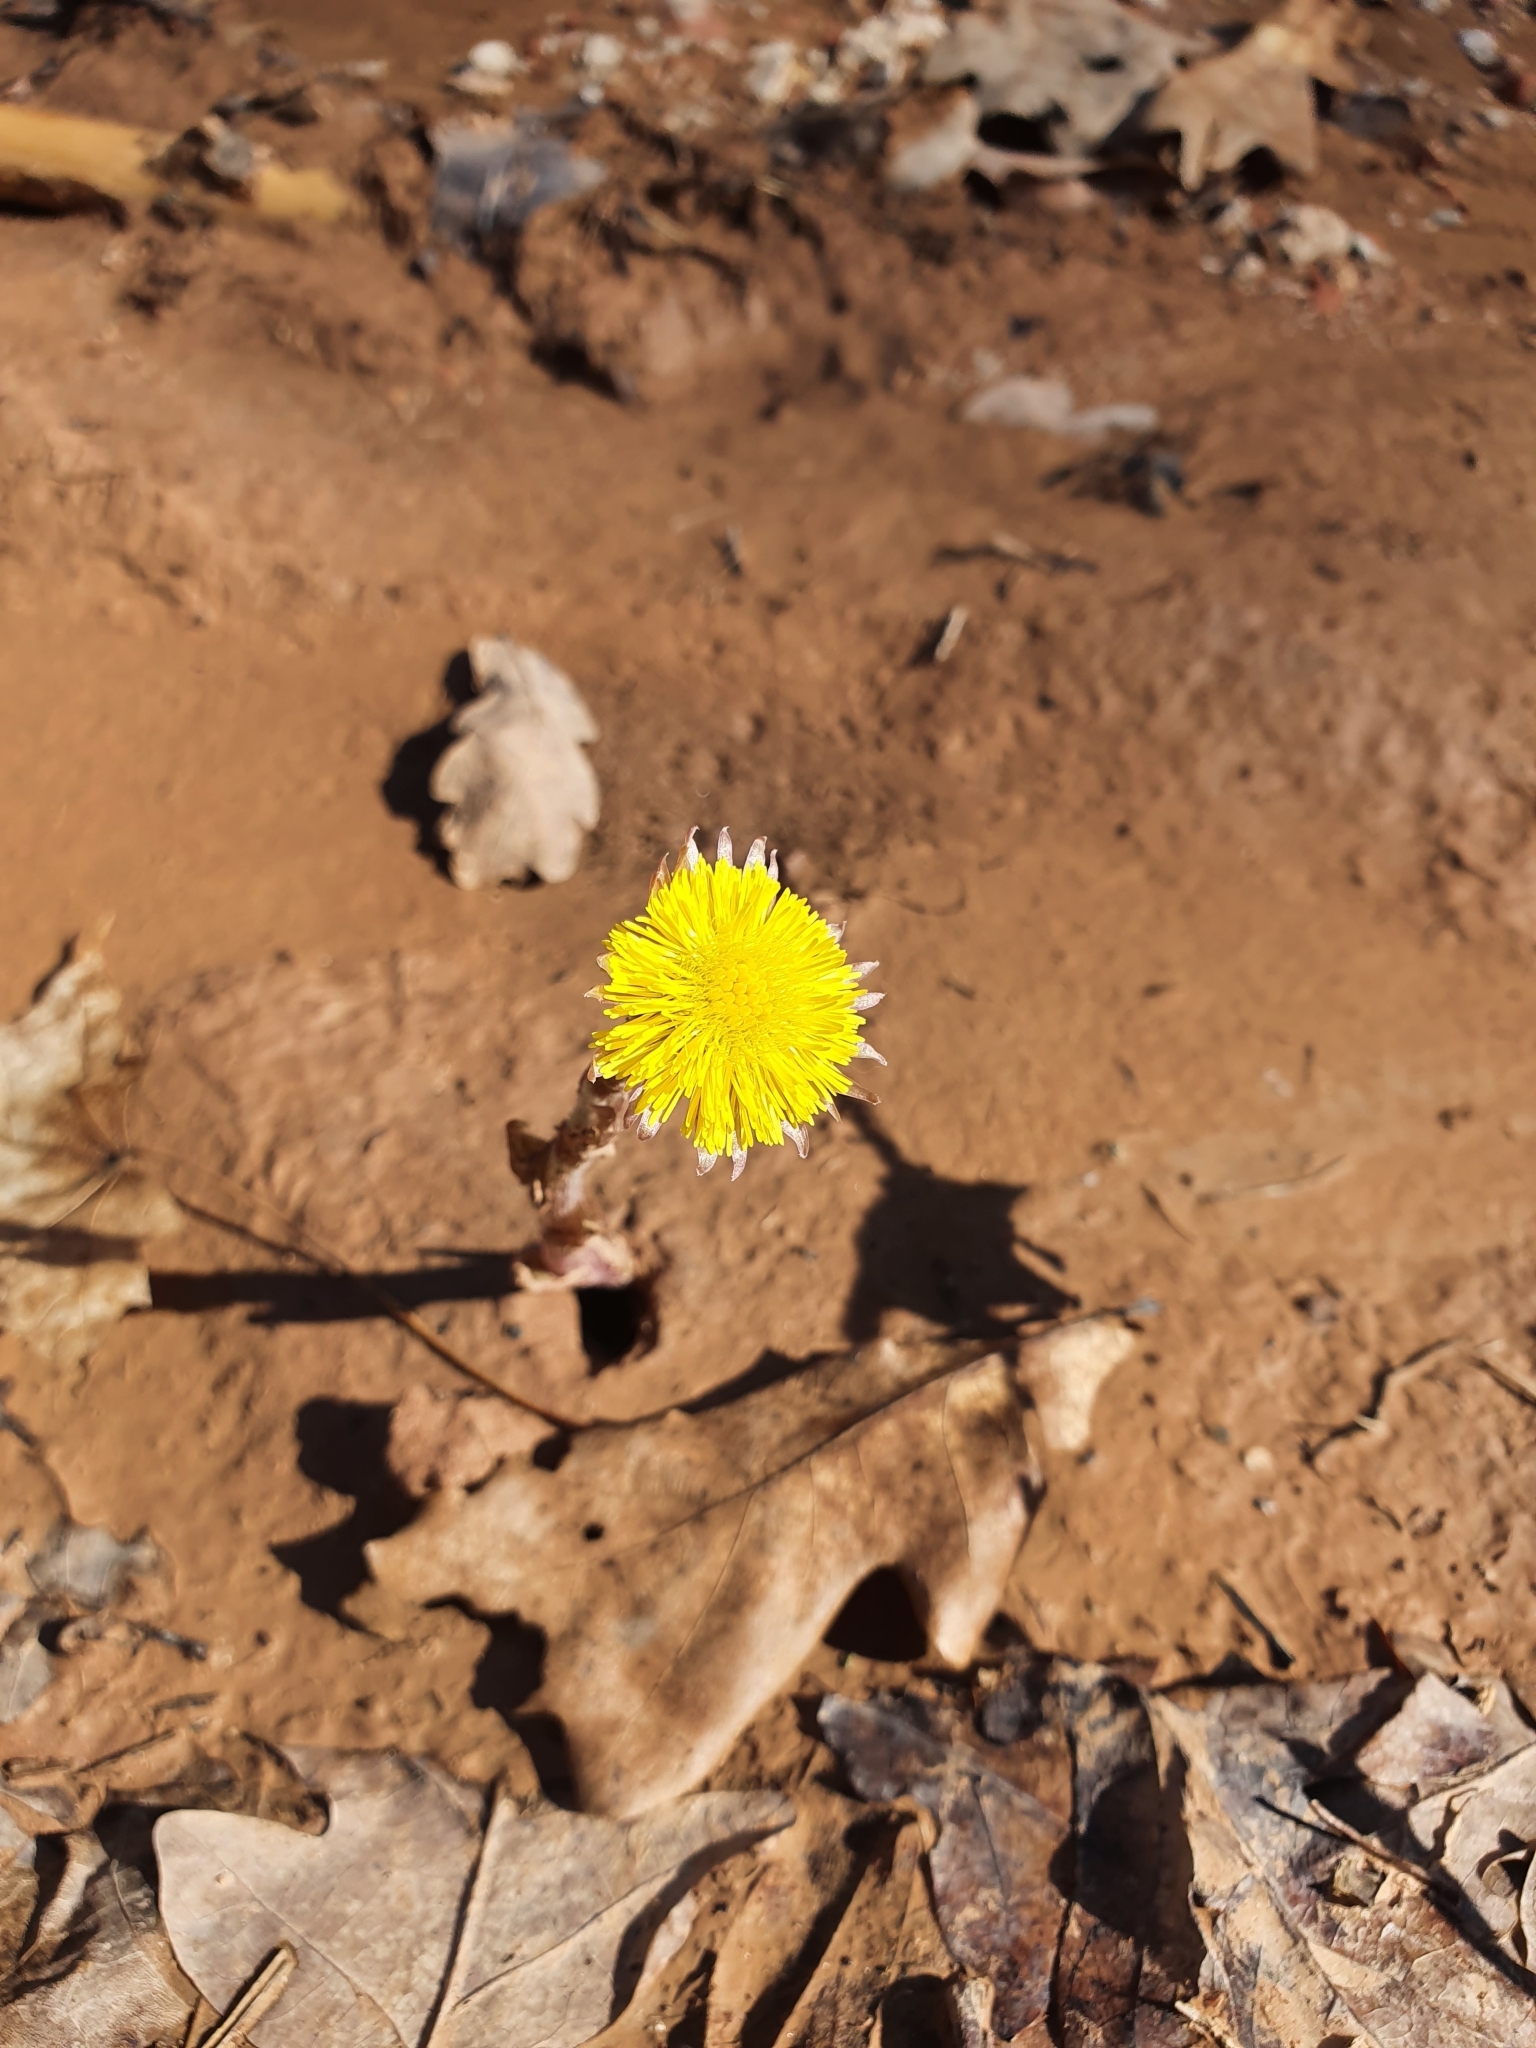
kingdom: Plantae
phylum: Tracheophyta
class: Magnoliopsida
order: Asterales
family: Asteraceae
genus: Tussilago
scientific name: Tussilago farfara
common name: Coltsfoot
